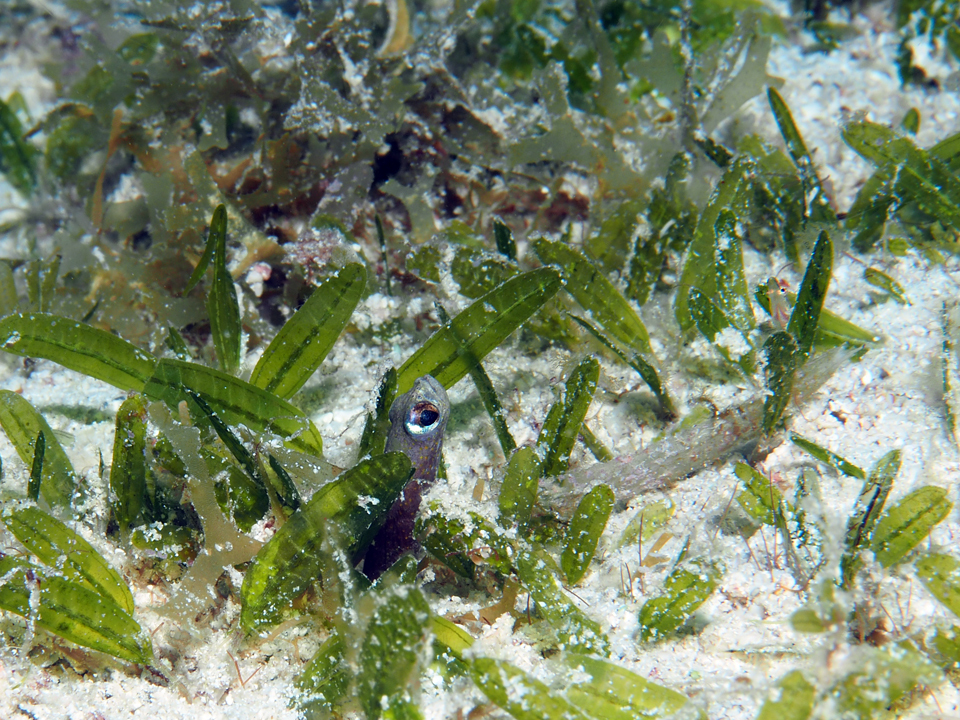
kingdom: Animalia
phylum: Chordata
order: Anguilliformes
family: Congridae
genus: Heteroconger
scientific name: Heteroconger longissimus
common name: Garden eel
